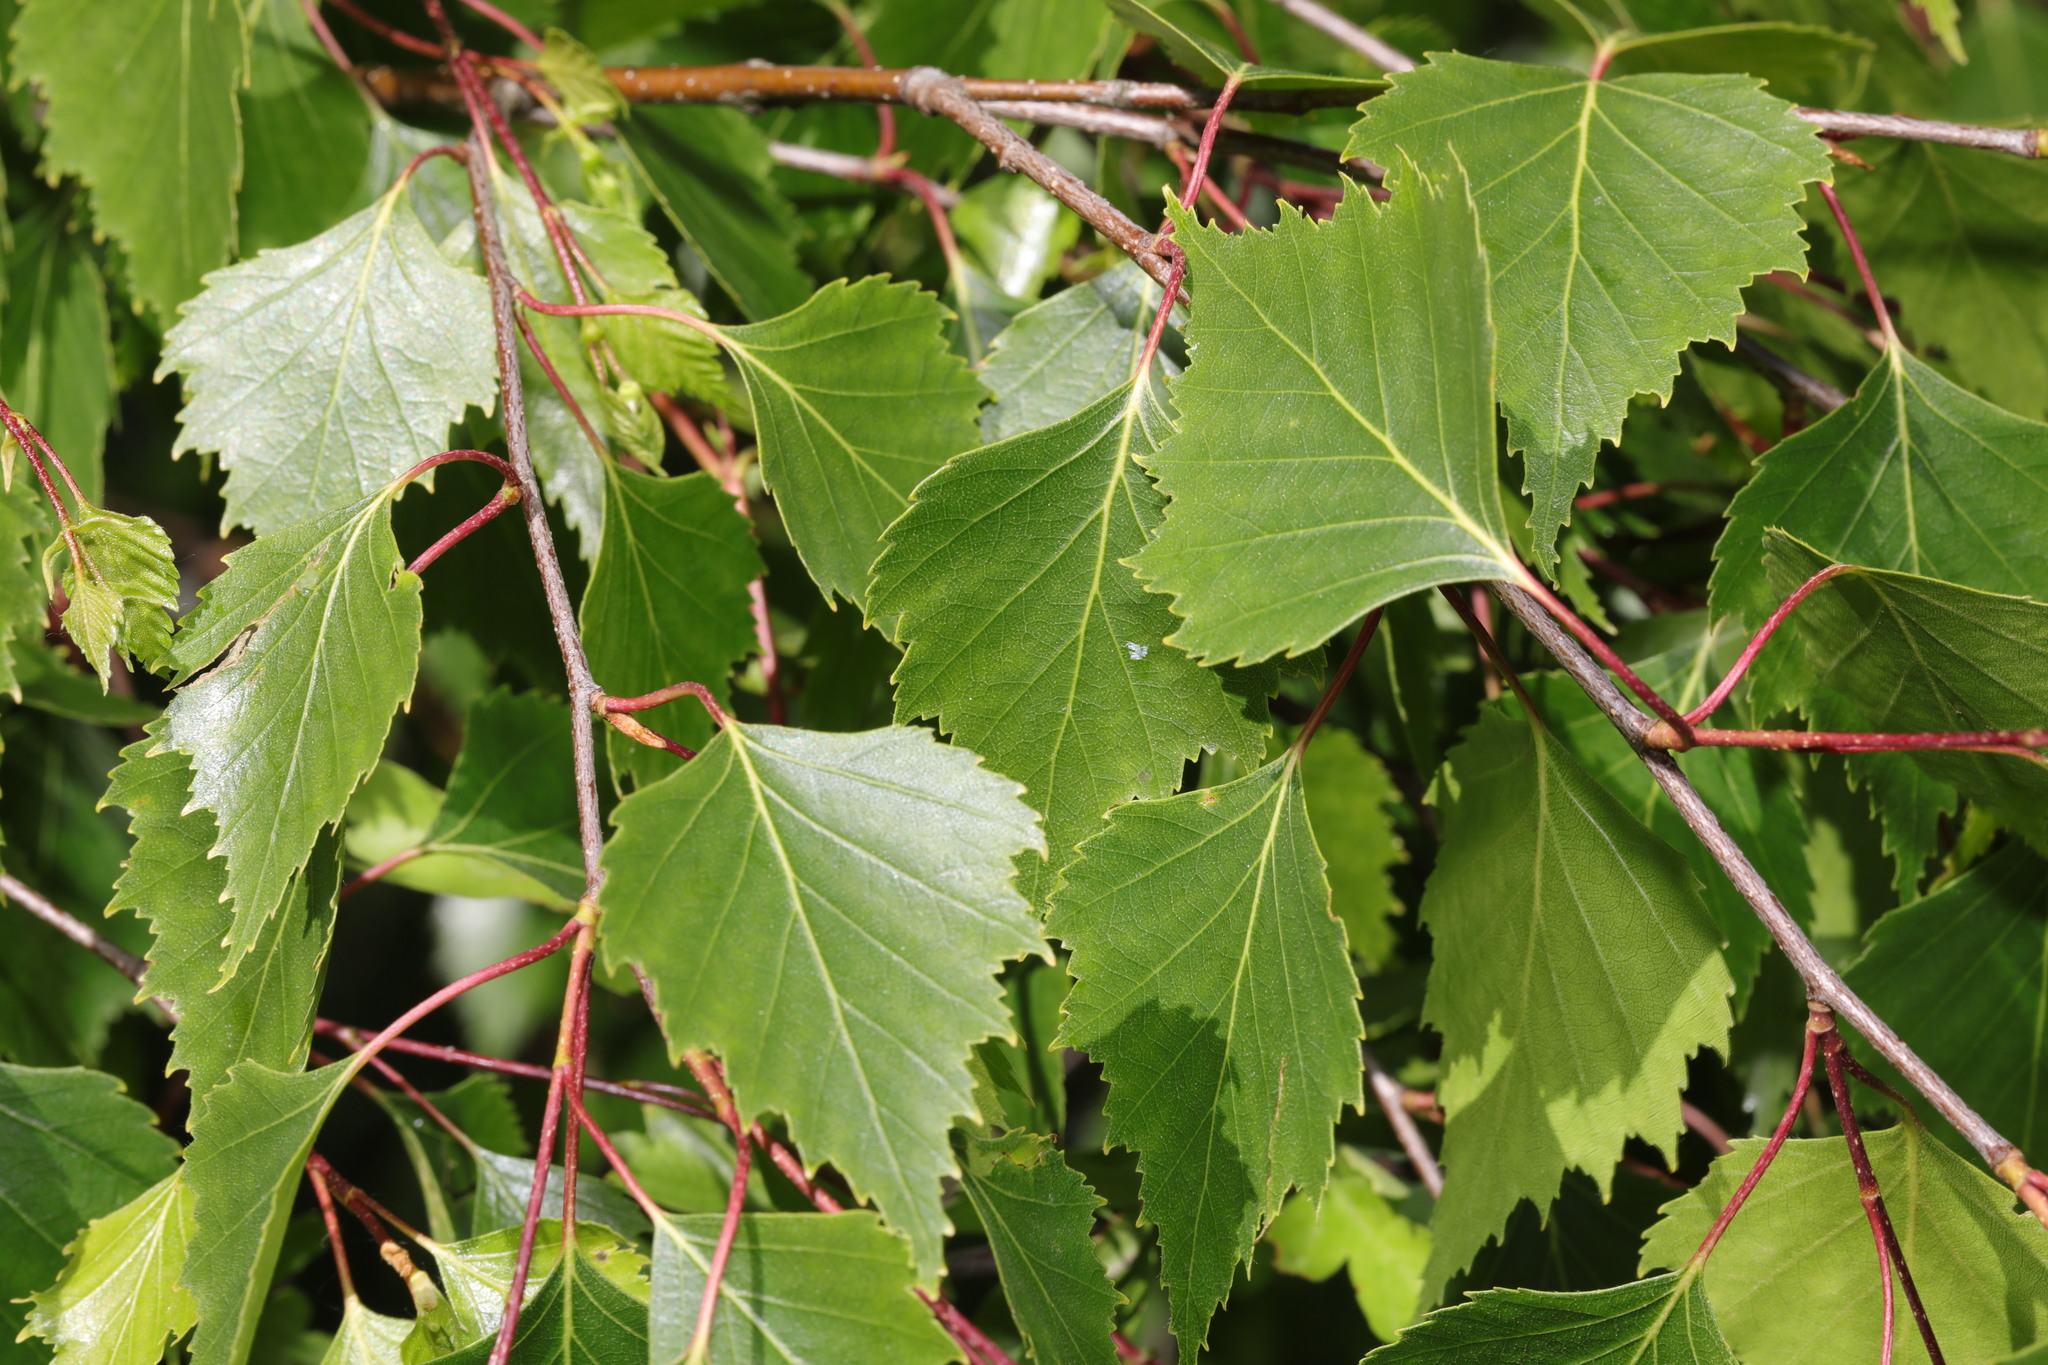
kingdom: Plantae
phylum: Tracheophyta
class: Magnoliopsida
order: Fagales
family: Betulaceae
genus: Betula
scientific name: Betula pendula
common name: Silver birch
